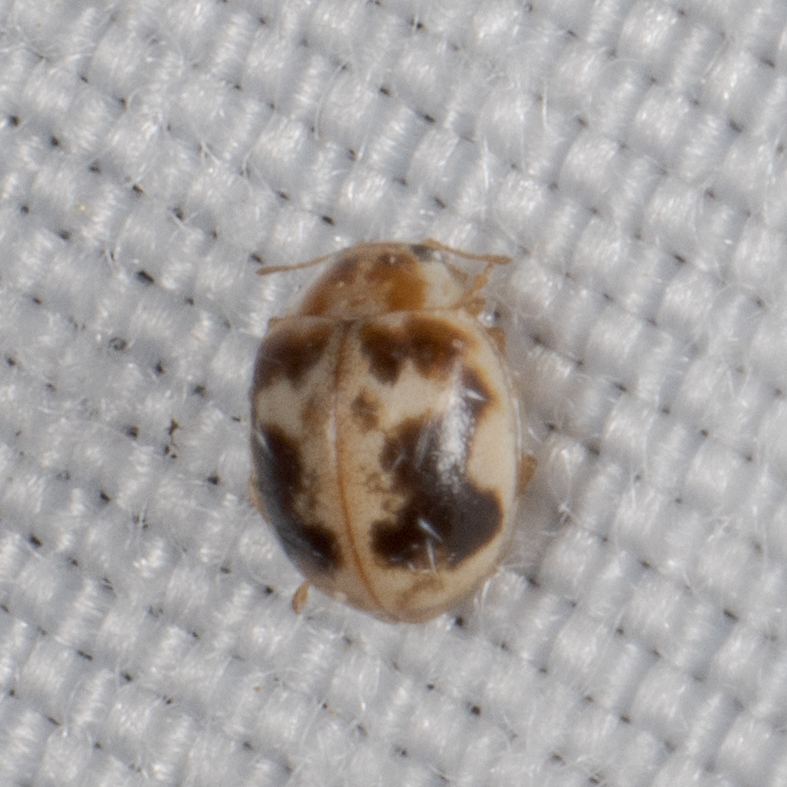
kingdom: Animalia
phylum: Arthropoda
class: Insecta
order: Coleoptera
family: Coccinellidae
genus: Psyllobora
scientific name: Psyllobora renifer
